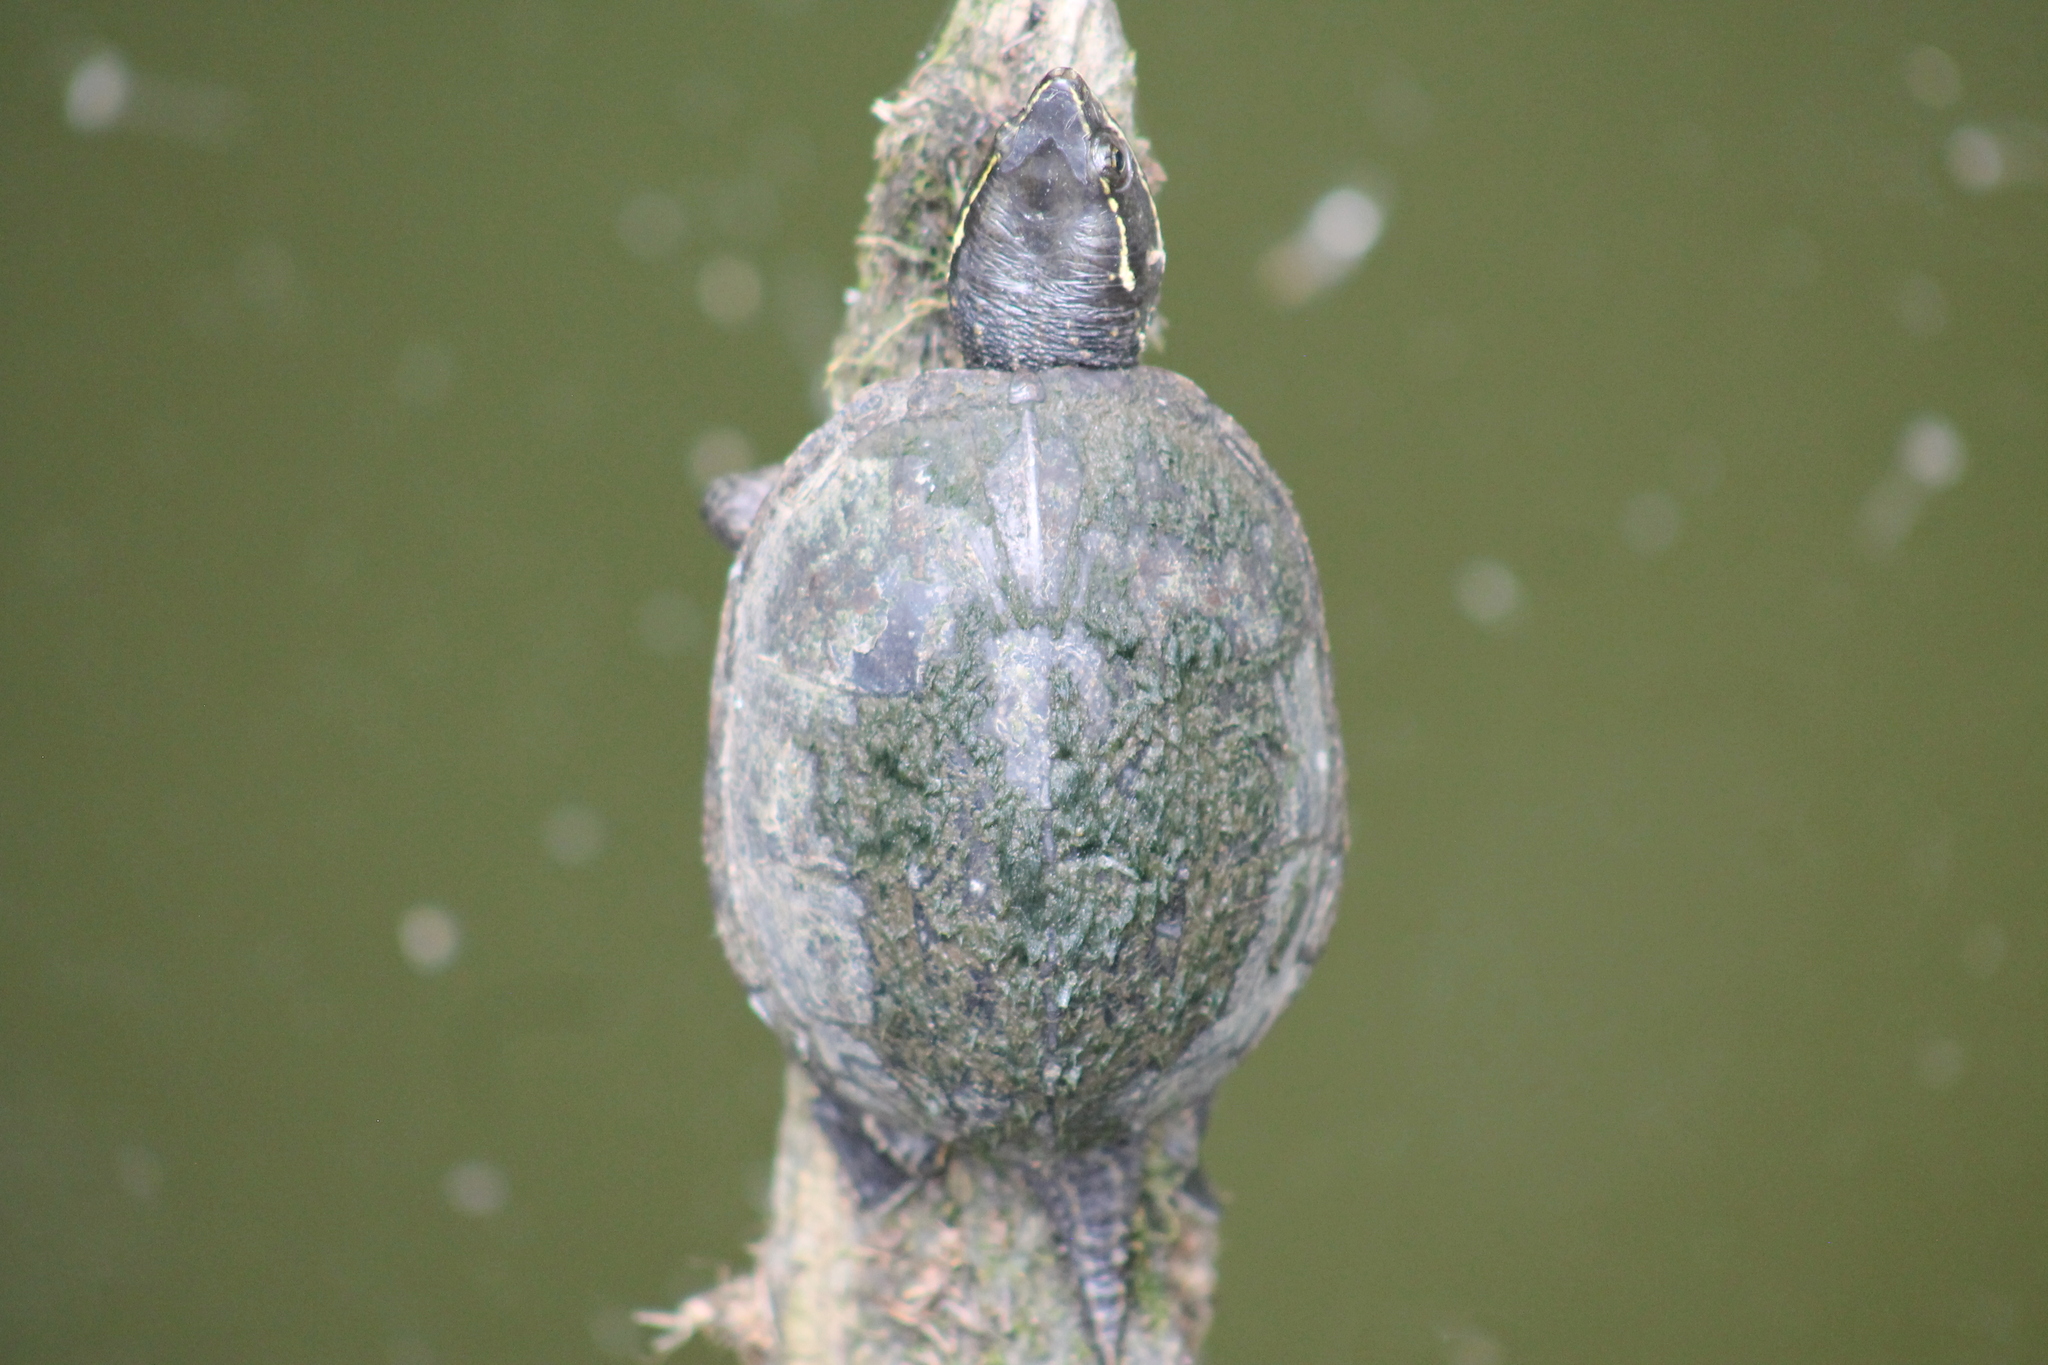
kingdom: Animalia
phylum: Chordata
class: Testudines
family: Kinosternidae
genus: Sternotherus
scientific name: Sternotherus odoratus
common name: Common musk turtle
